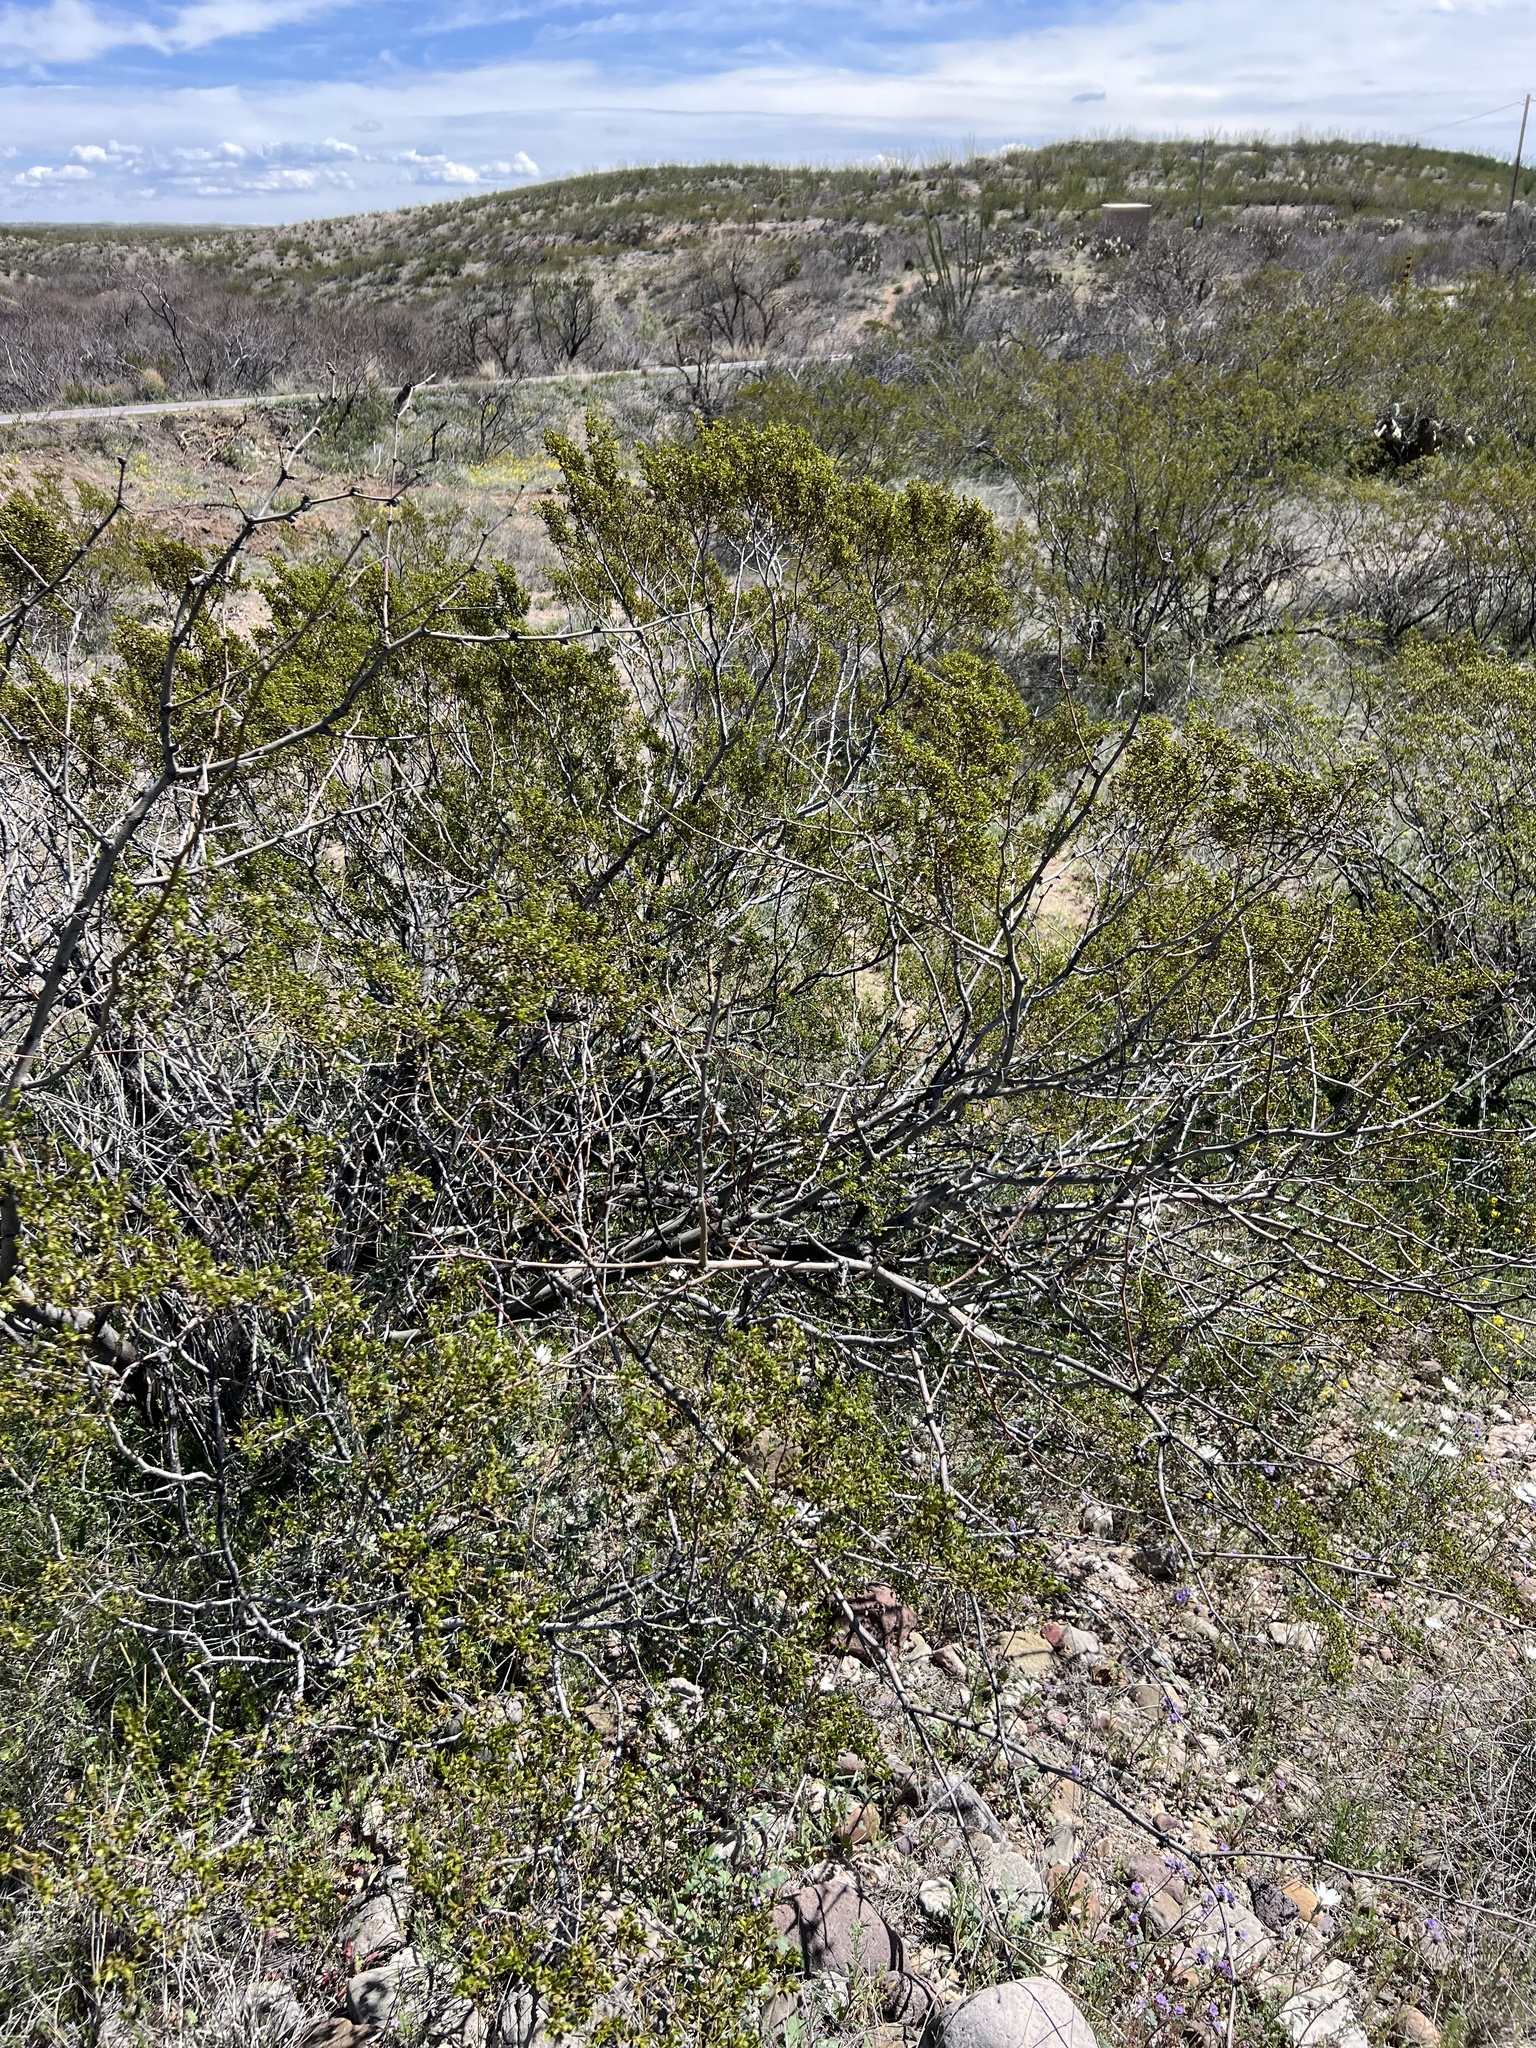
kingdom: Plantae
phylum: Tracheophyta
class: Magnoliopsida
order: Zygophyllales
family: Zygophyllaceae
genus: Larrea
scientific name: Larrea tridentata
